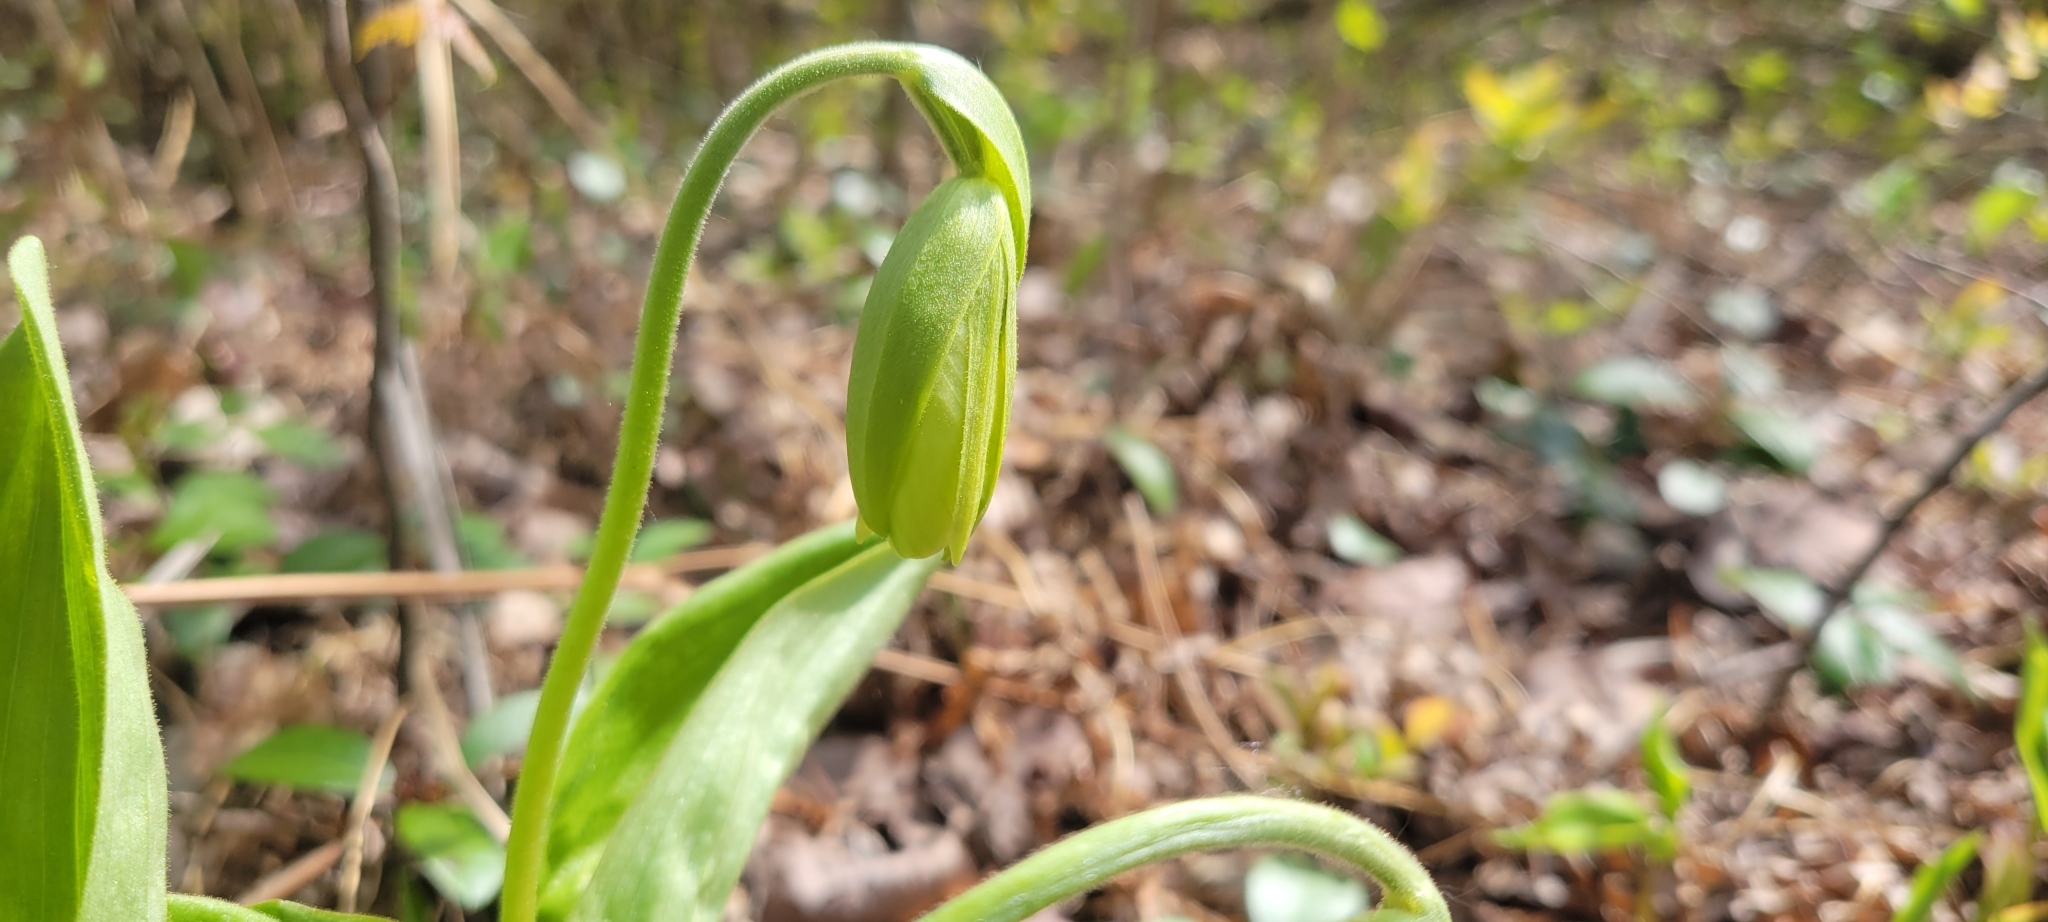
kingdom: Plantae
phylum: Tracheophyta
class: Liliopsida
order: Asparagales
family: Orchidaceae
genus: Cypripedium
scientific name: Cypripedium acaule
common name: Pink lady's-slipper
